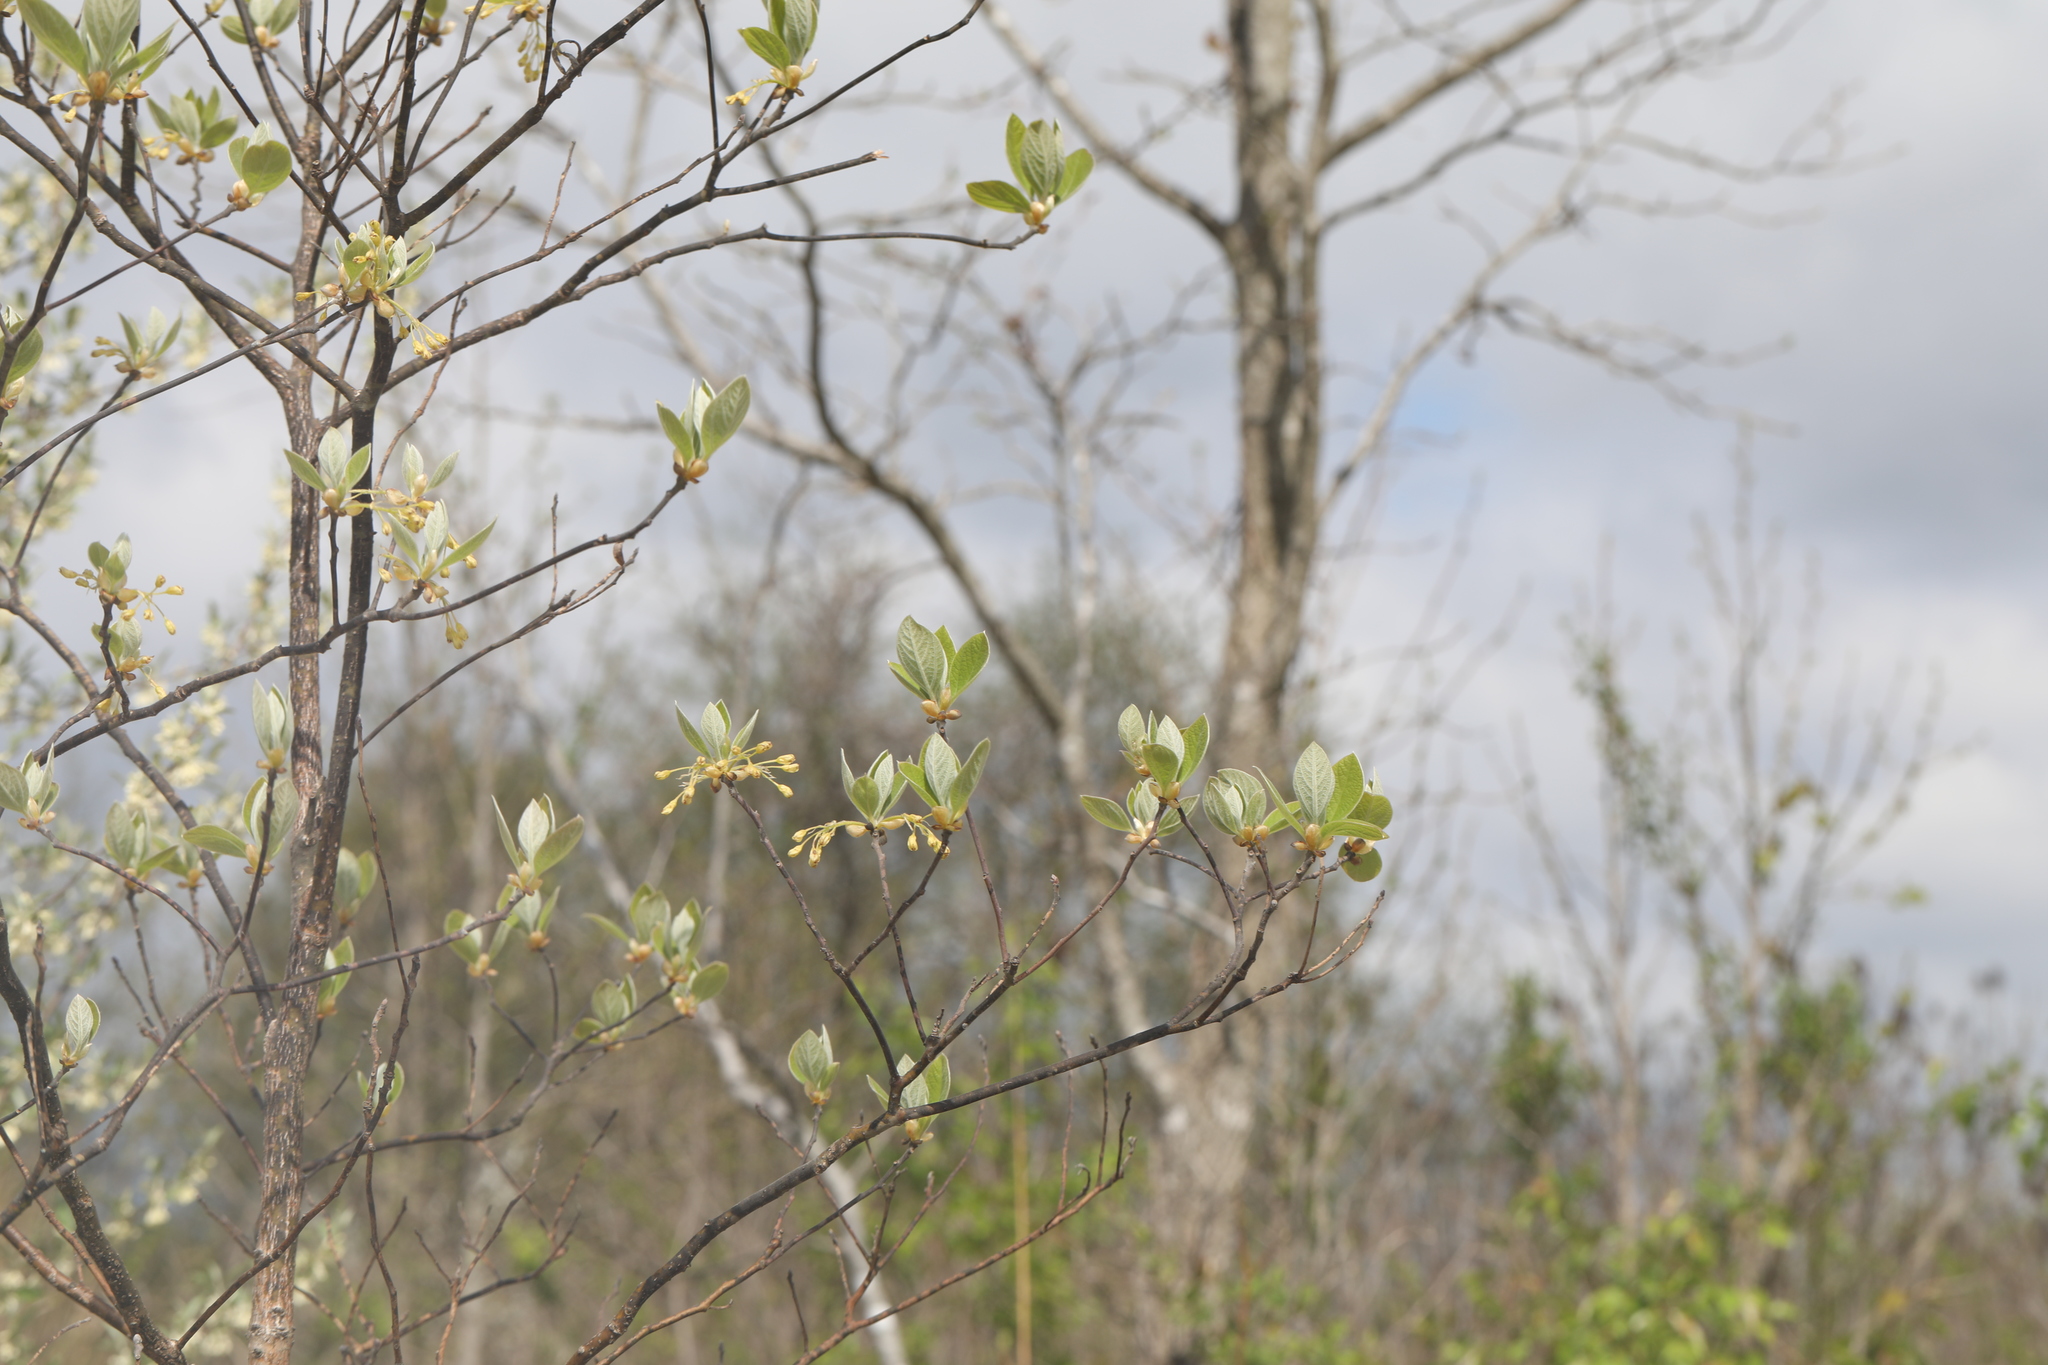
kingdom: Plantae
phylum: Tracheophyta
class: Magnoliopsida
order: Laurales
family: Lauraceae
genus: Sassafras
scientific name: Sassafras albidum
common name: Sassafras
